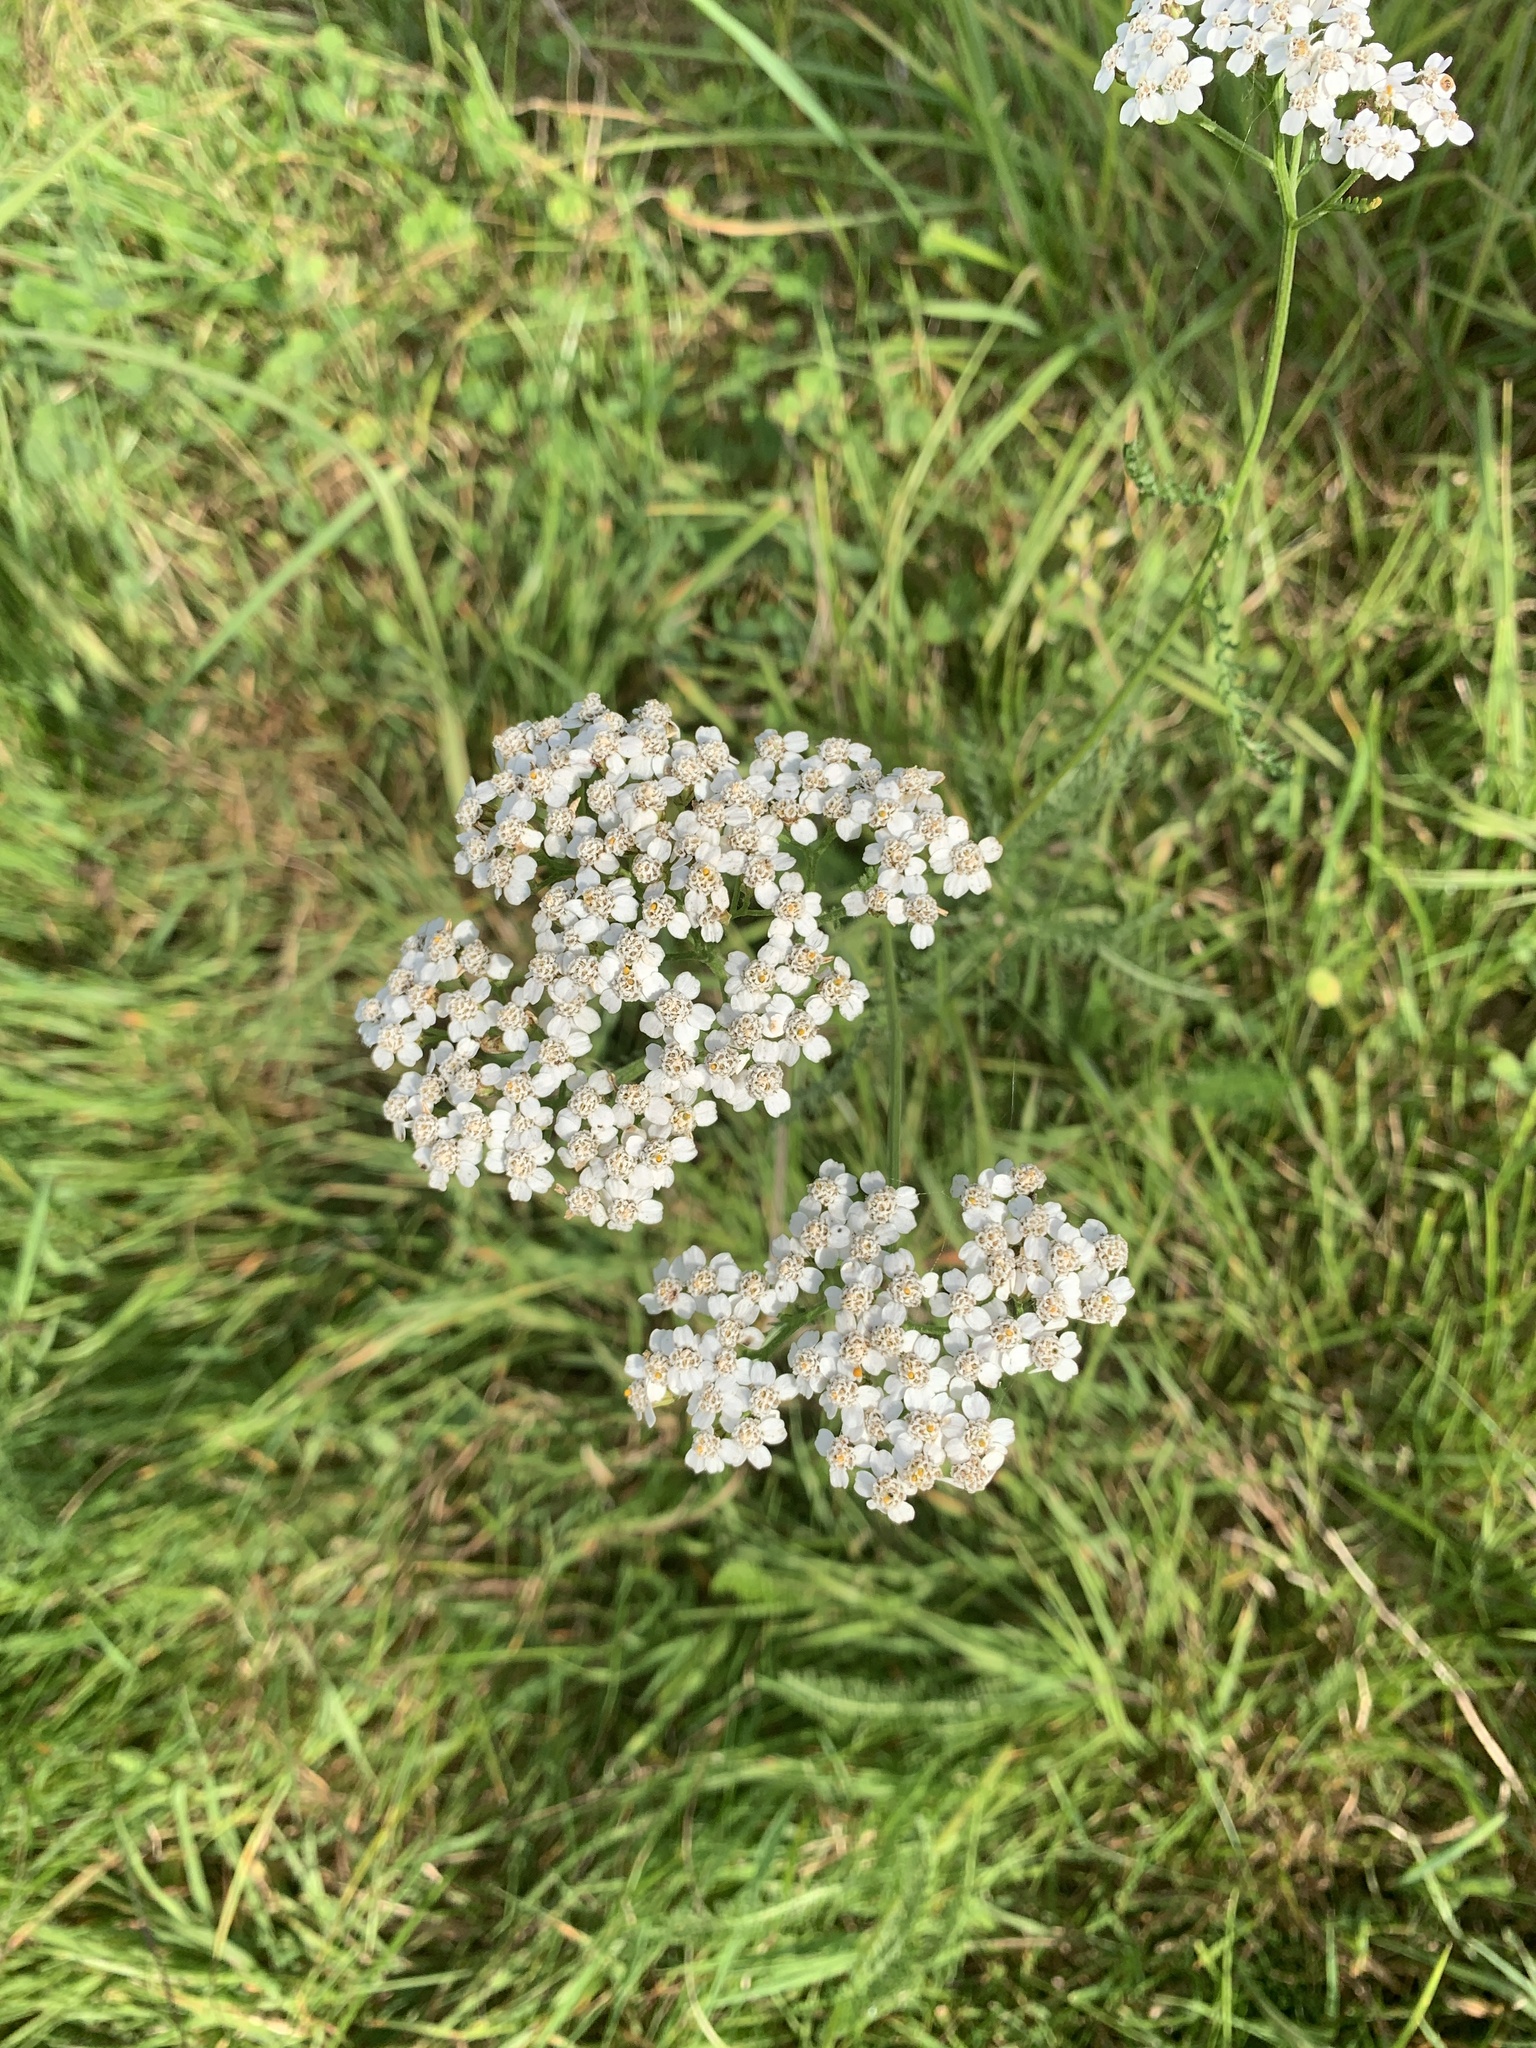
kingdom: Plantae
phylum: Tracheophyta
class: Magnoliopsida
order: Asterales
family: Asteraceae
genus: Achillea
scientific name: Achillea millefolium
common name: Yarrow
